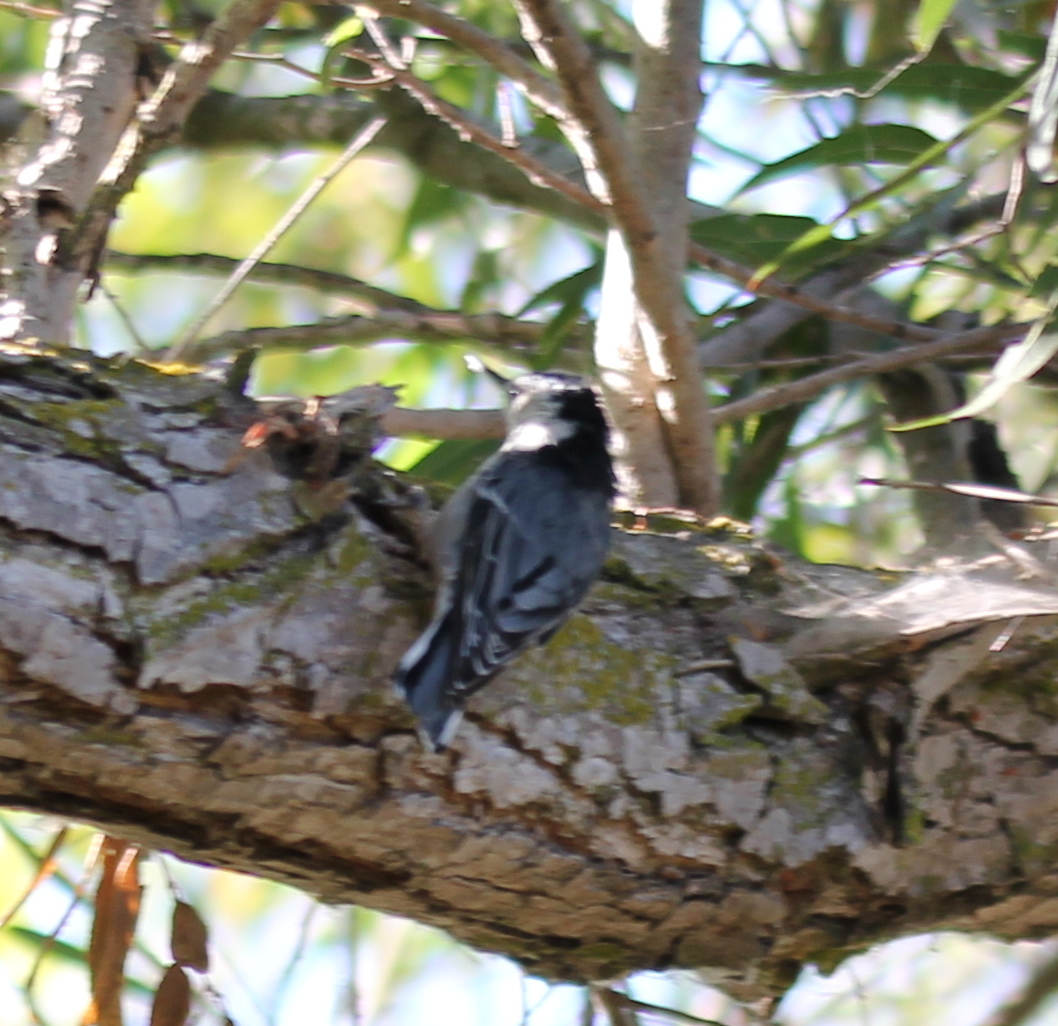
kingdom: Animalia
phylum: Chordata
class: Aves
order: Passeriformes
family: Sittidae
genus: Sitta
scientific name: Sitta carolinensis
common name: White-breasted nuthatch
